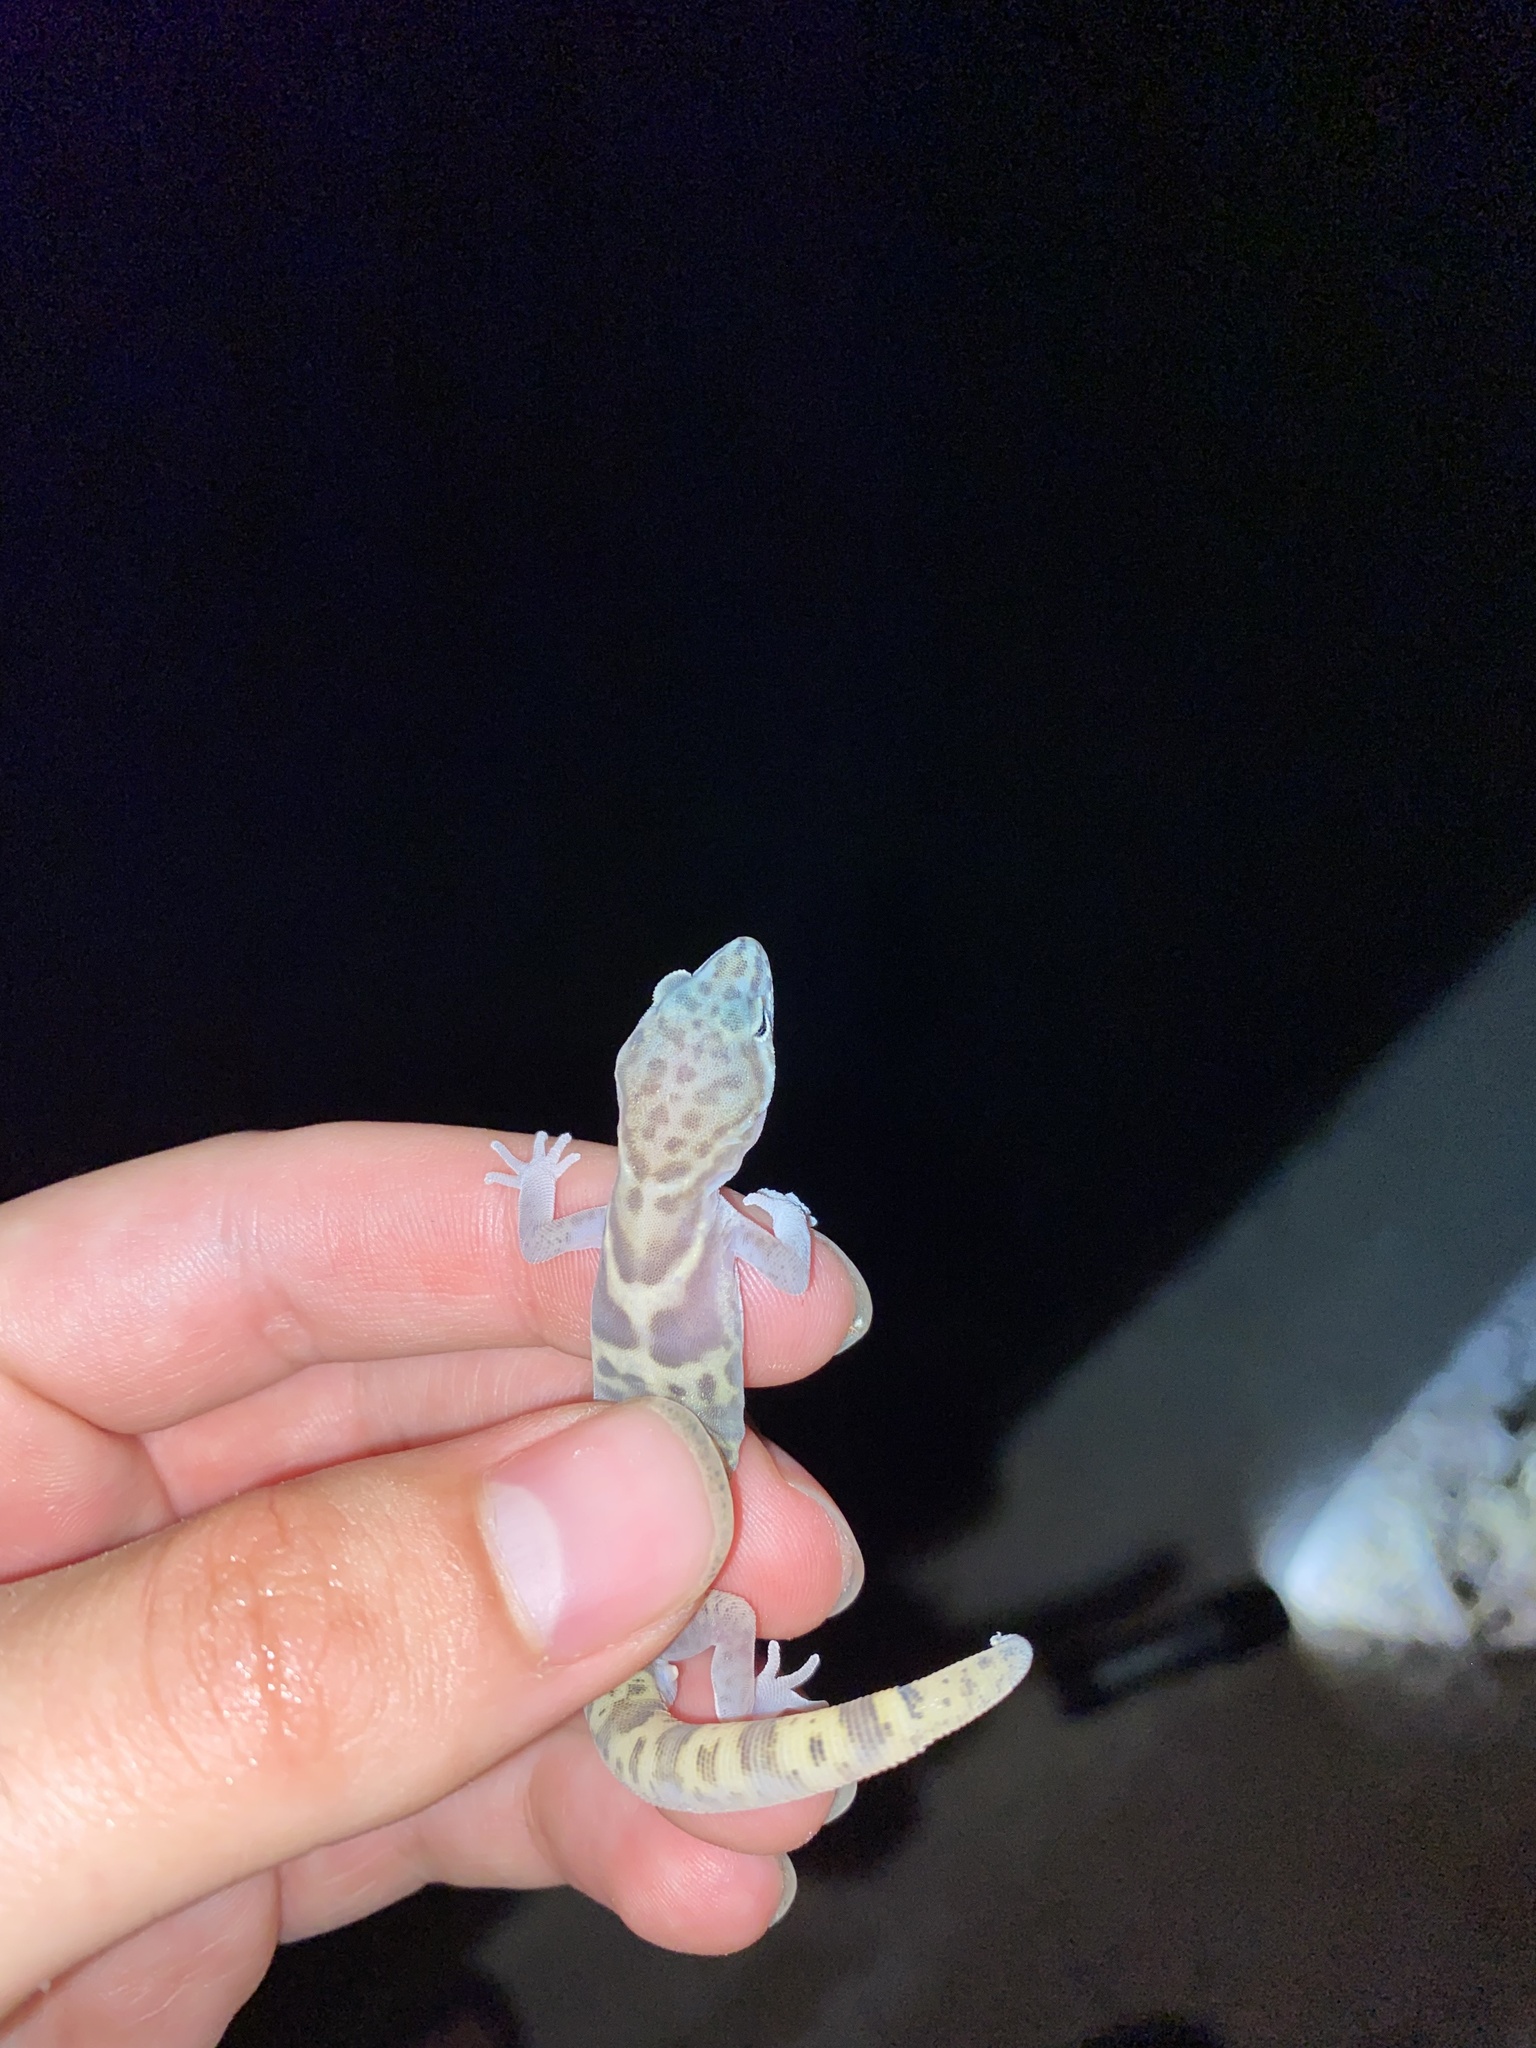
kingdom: Animalia
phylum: Chordata
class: Squamata
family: Eublepharidae
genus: Coleonyx
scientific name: Coleonyx variegatus
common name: Western banded gecko
